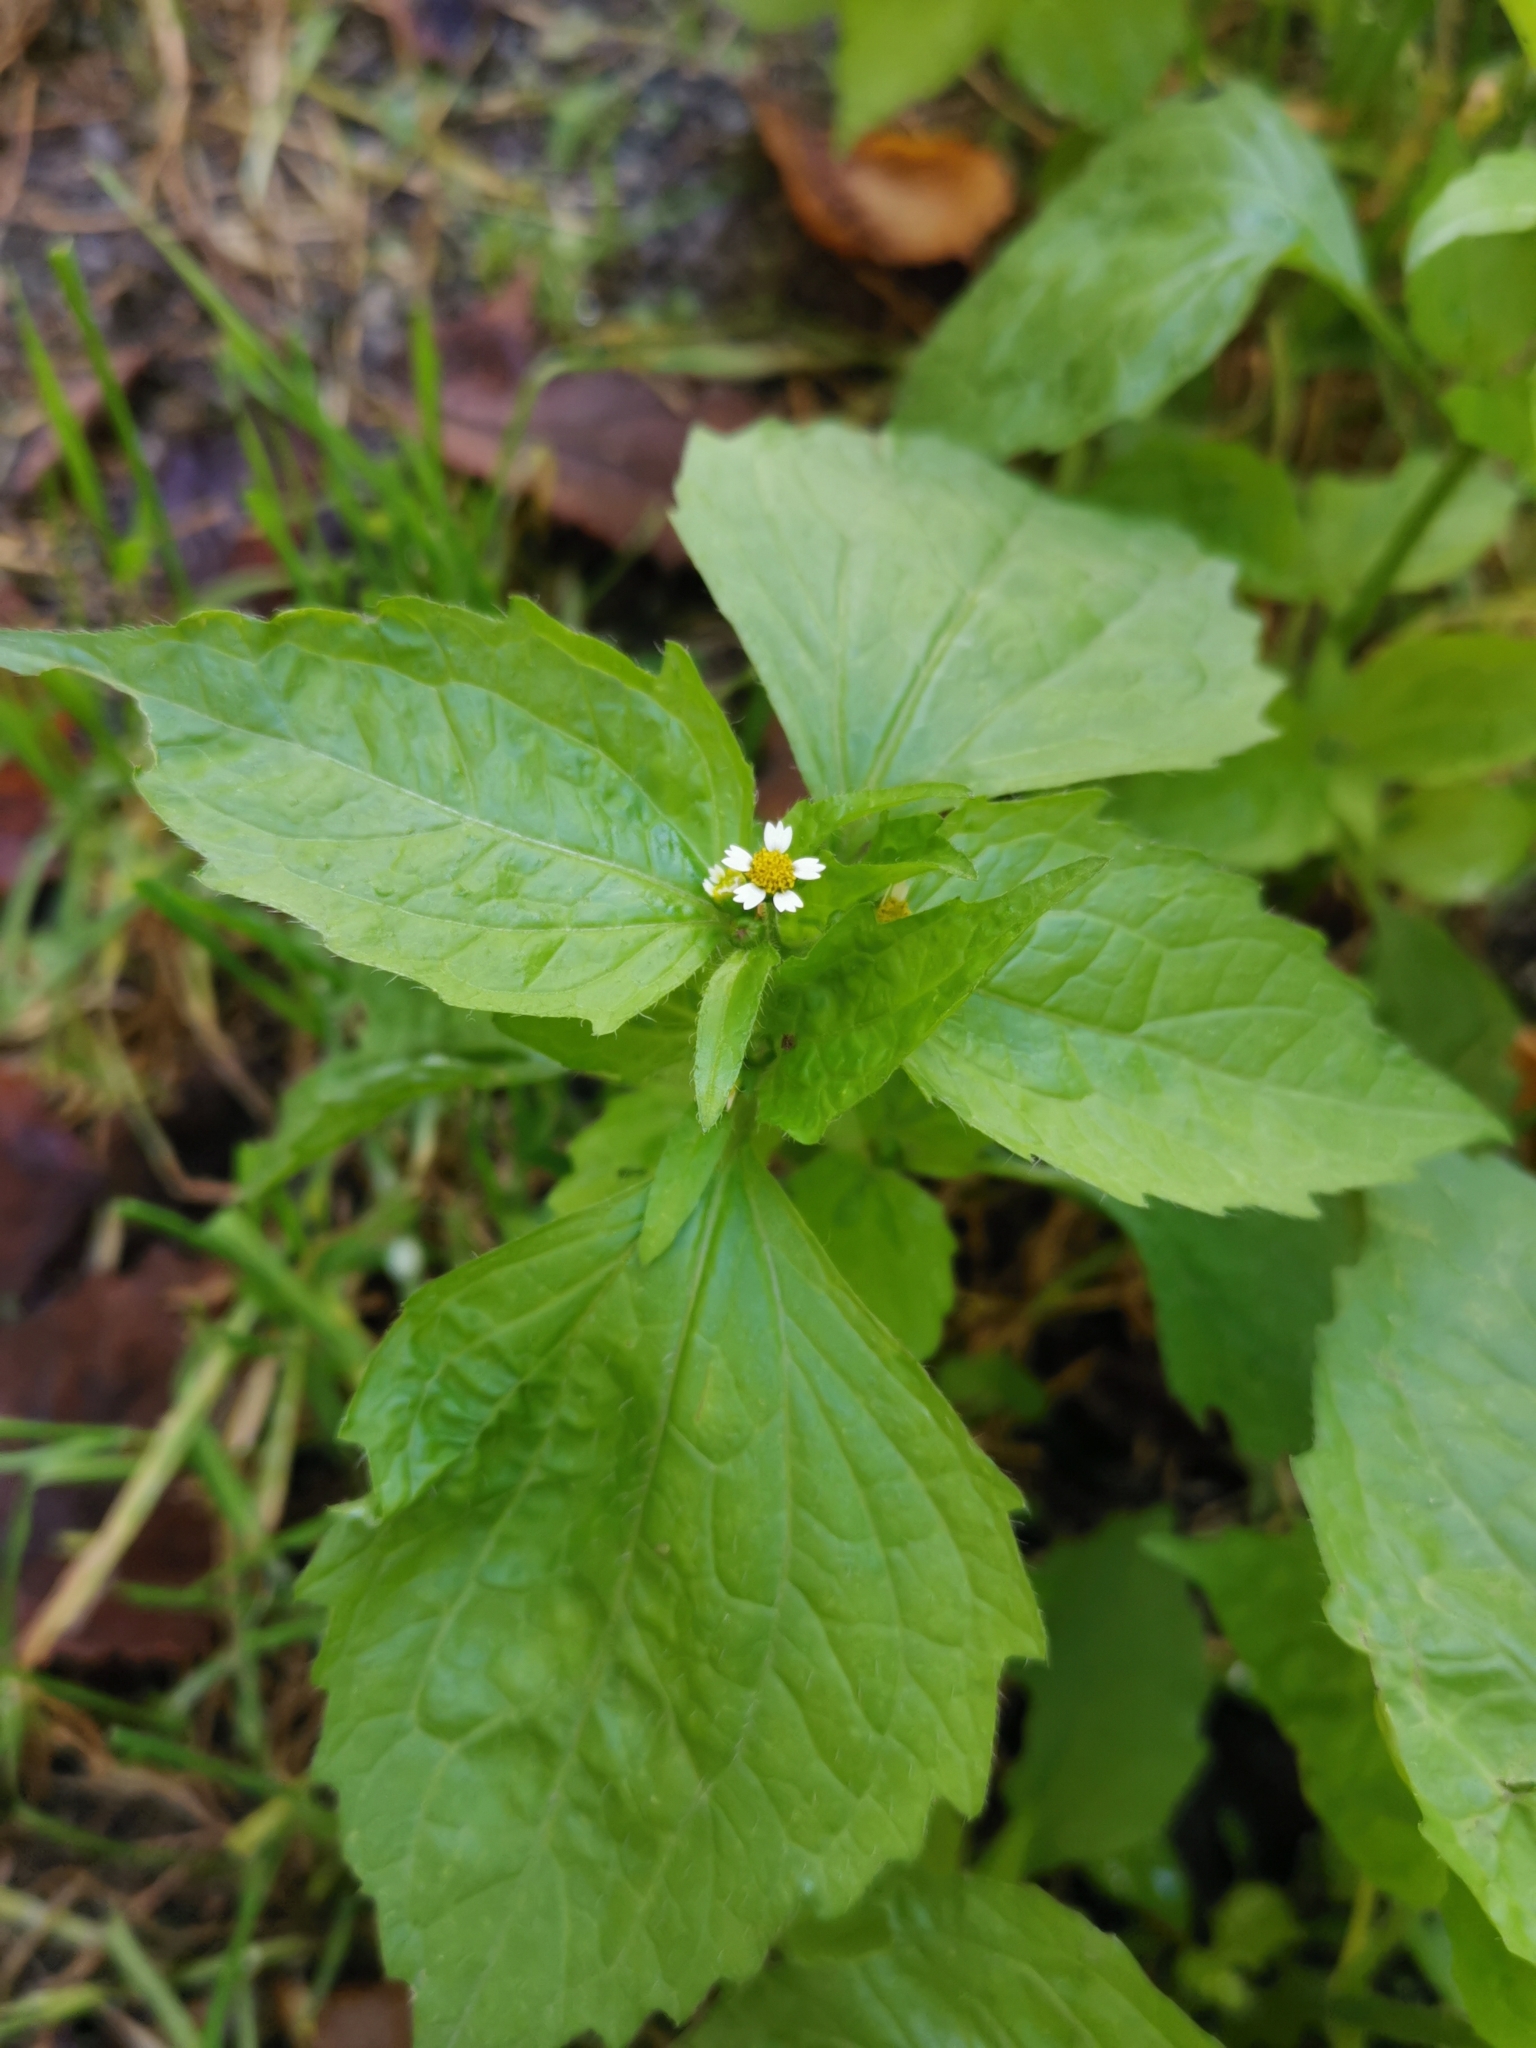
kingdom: Plantae
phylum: Tracheophyta
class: Magnoliopsida
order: Asterales
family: Asteraceae
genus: Galinsoga
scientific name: Galinsoga quadriradiata
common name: Shaggy soldier
